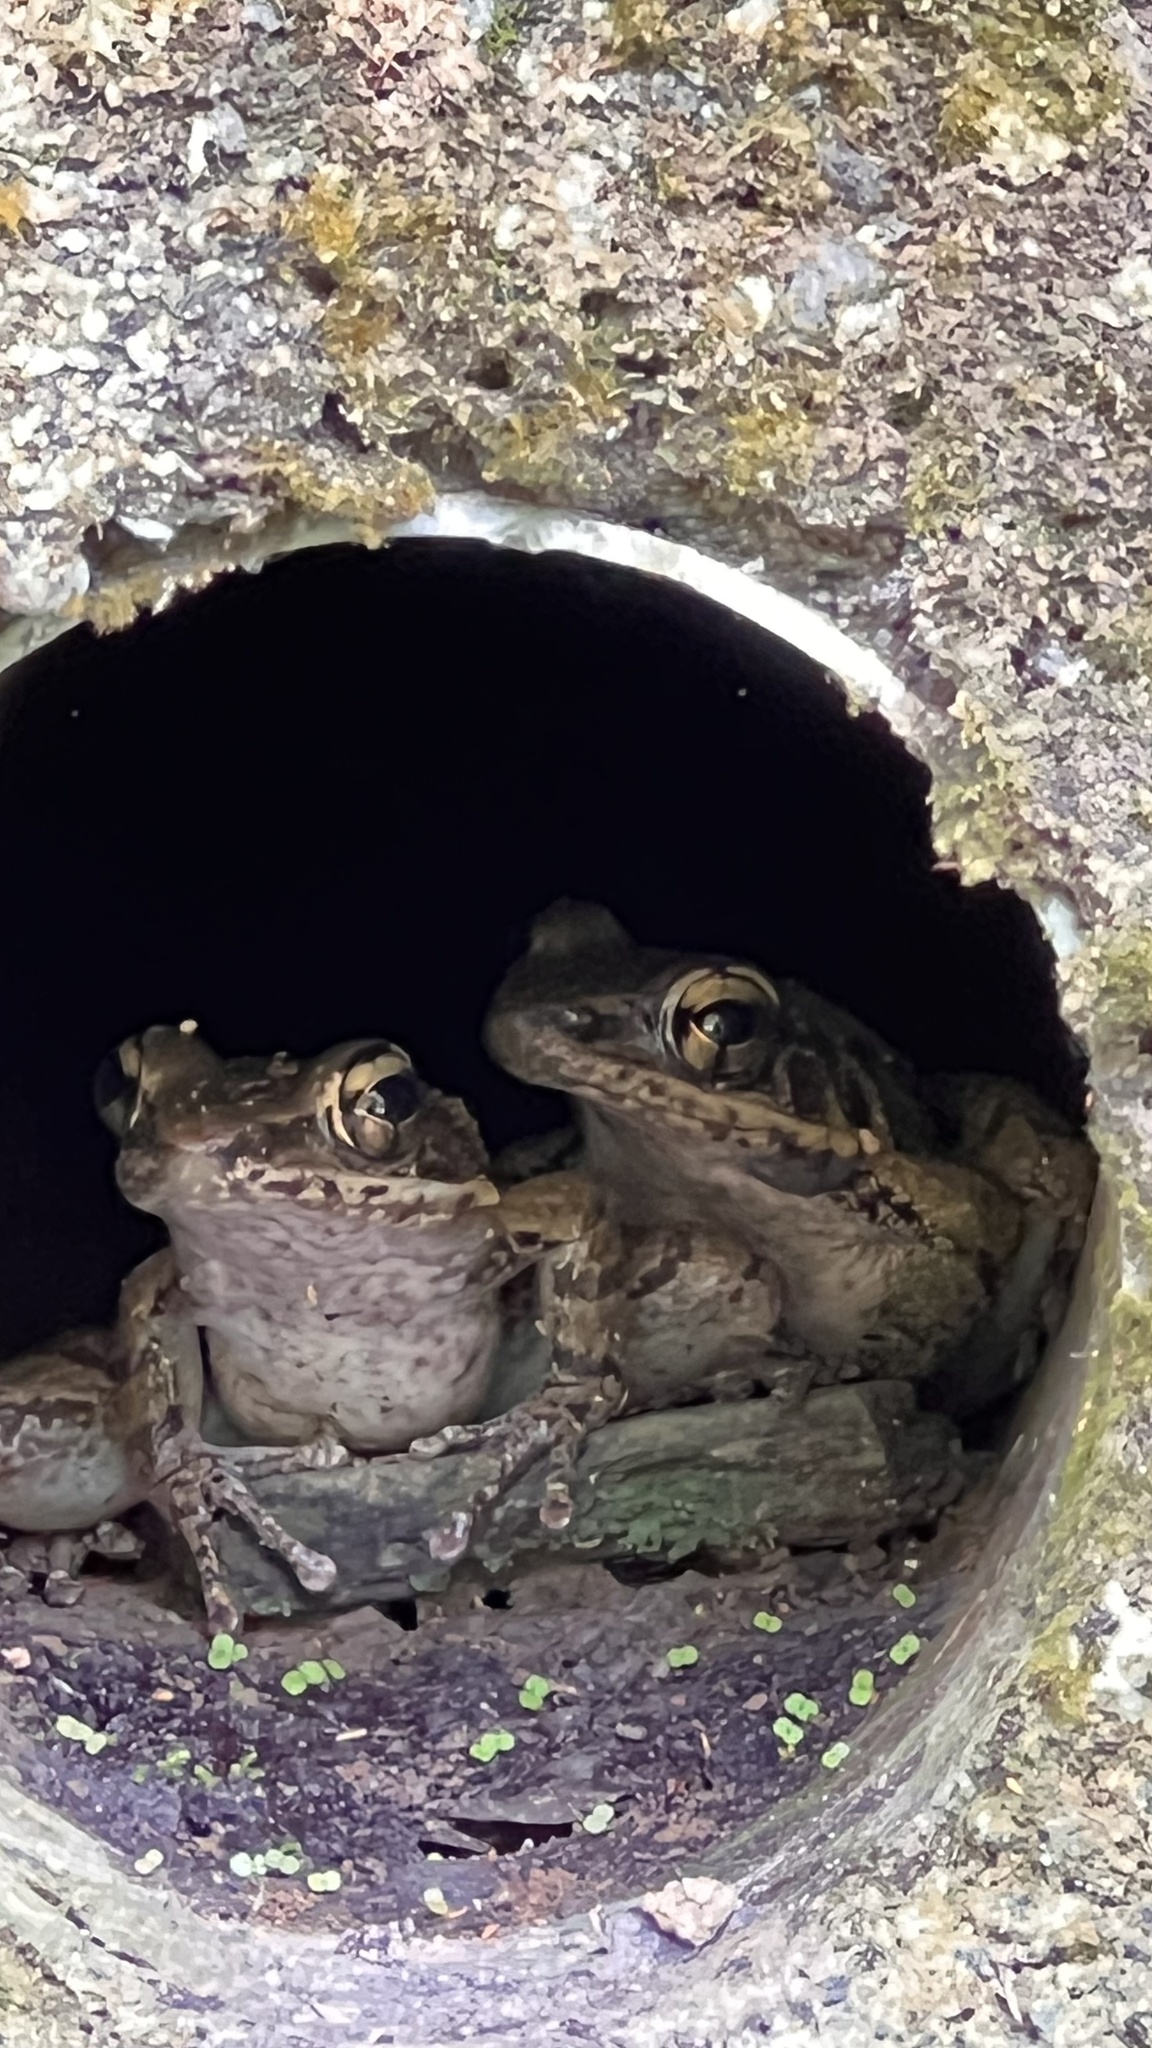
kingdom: Animalia
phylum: Chordata
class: Amphibia
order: Anura
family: Ranidae
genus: Odorrana
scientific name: Odorrana swinhoana
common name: Bangkimtsing frog
